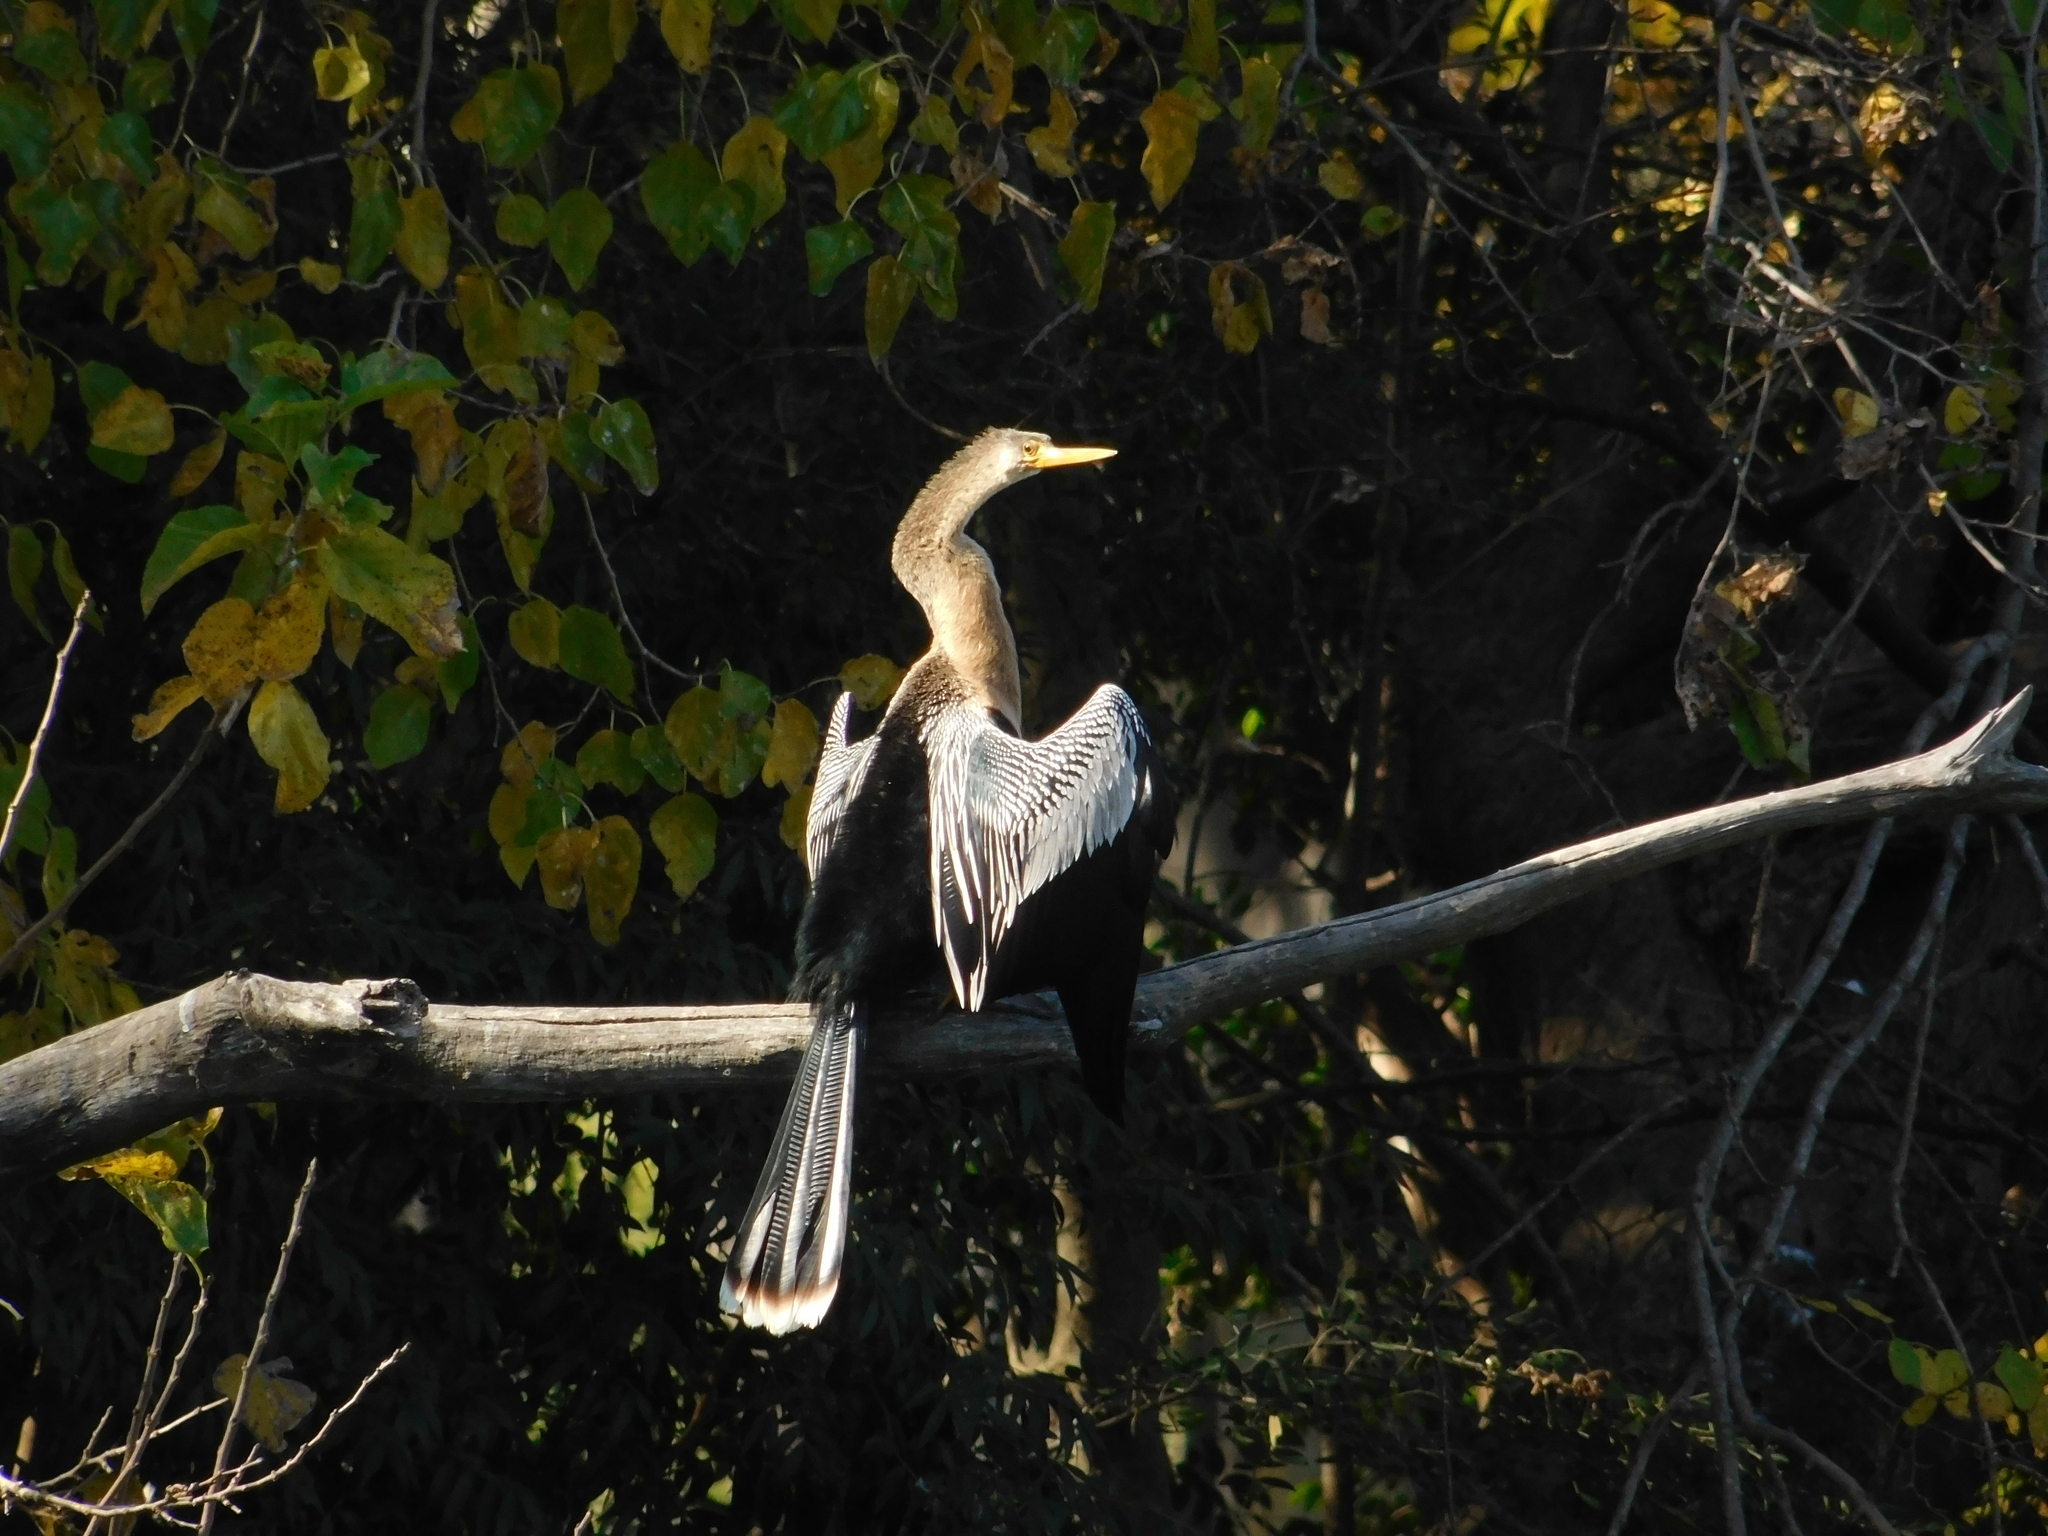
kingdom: Animalia
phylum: Chordata
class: Aves
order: Suliformes
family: Anhingidae
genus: Anhinga
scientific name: Anhinga anhinga
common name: Anhinga
